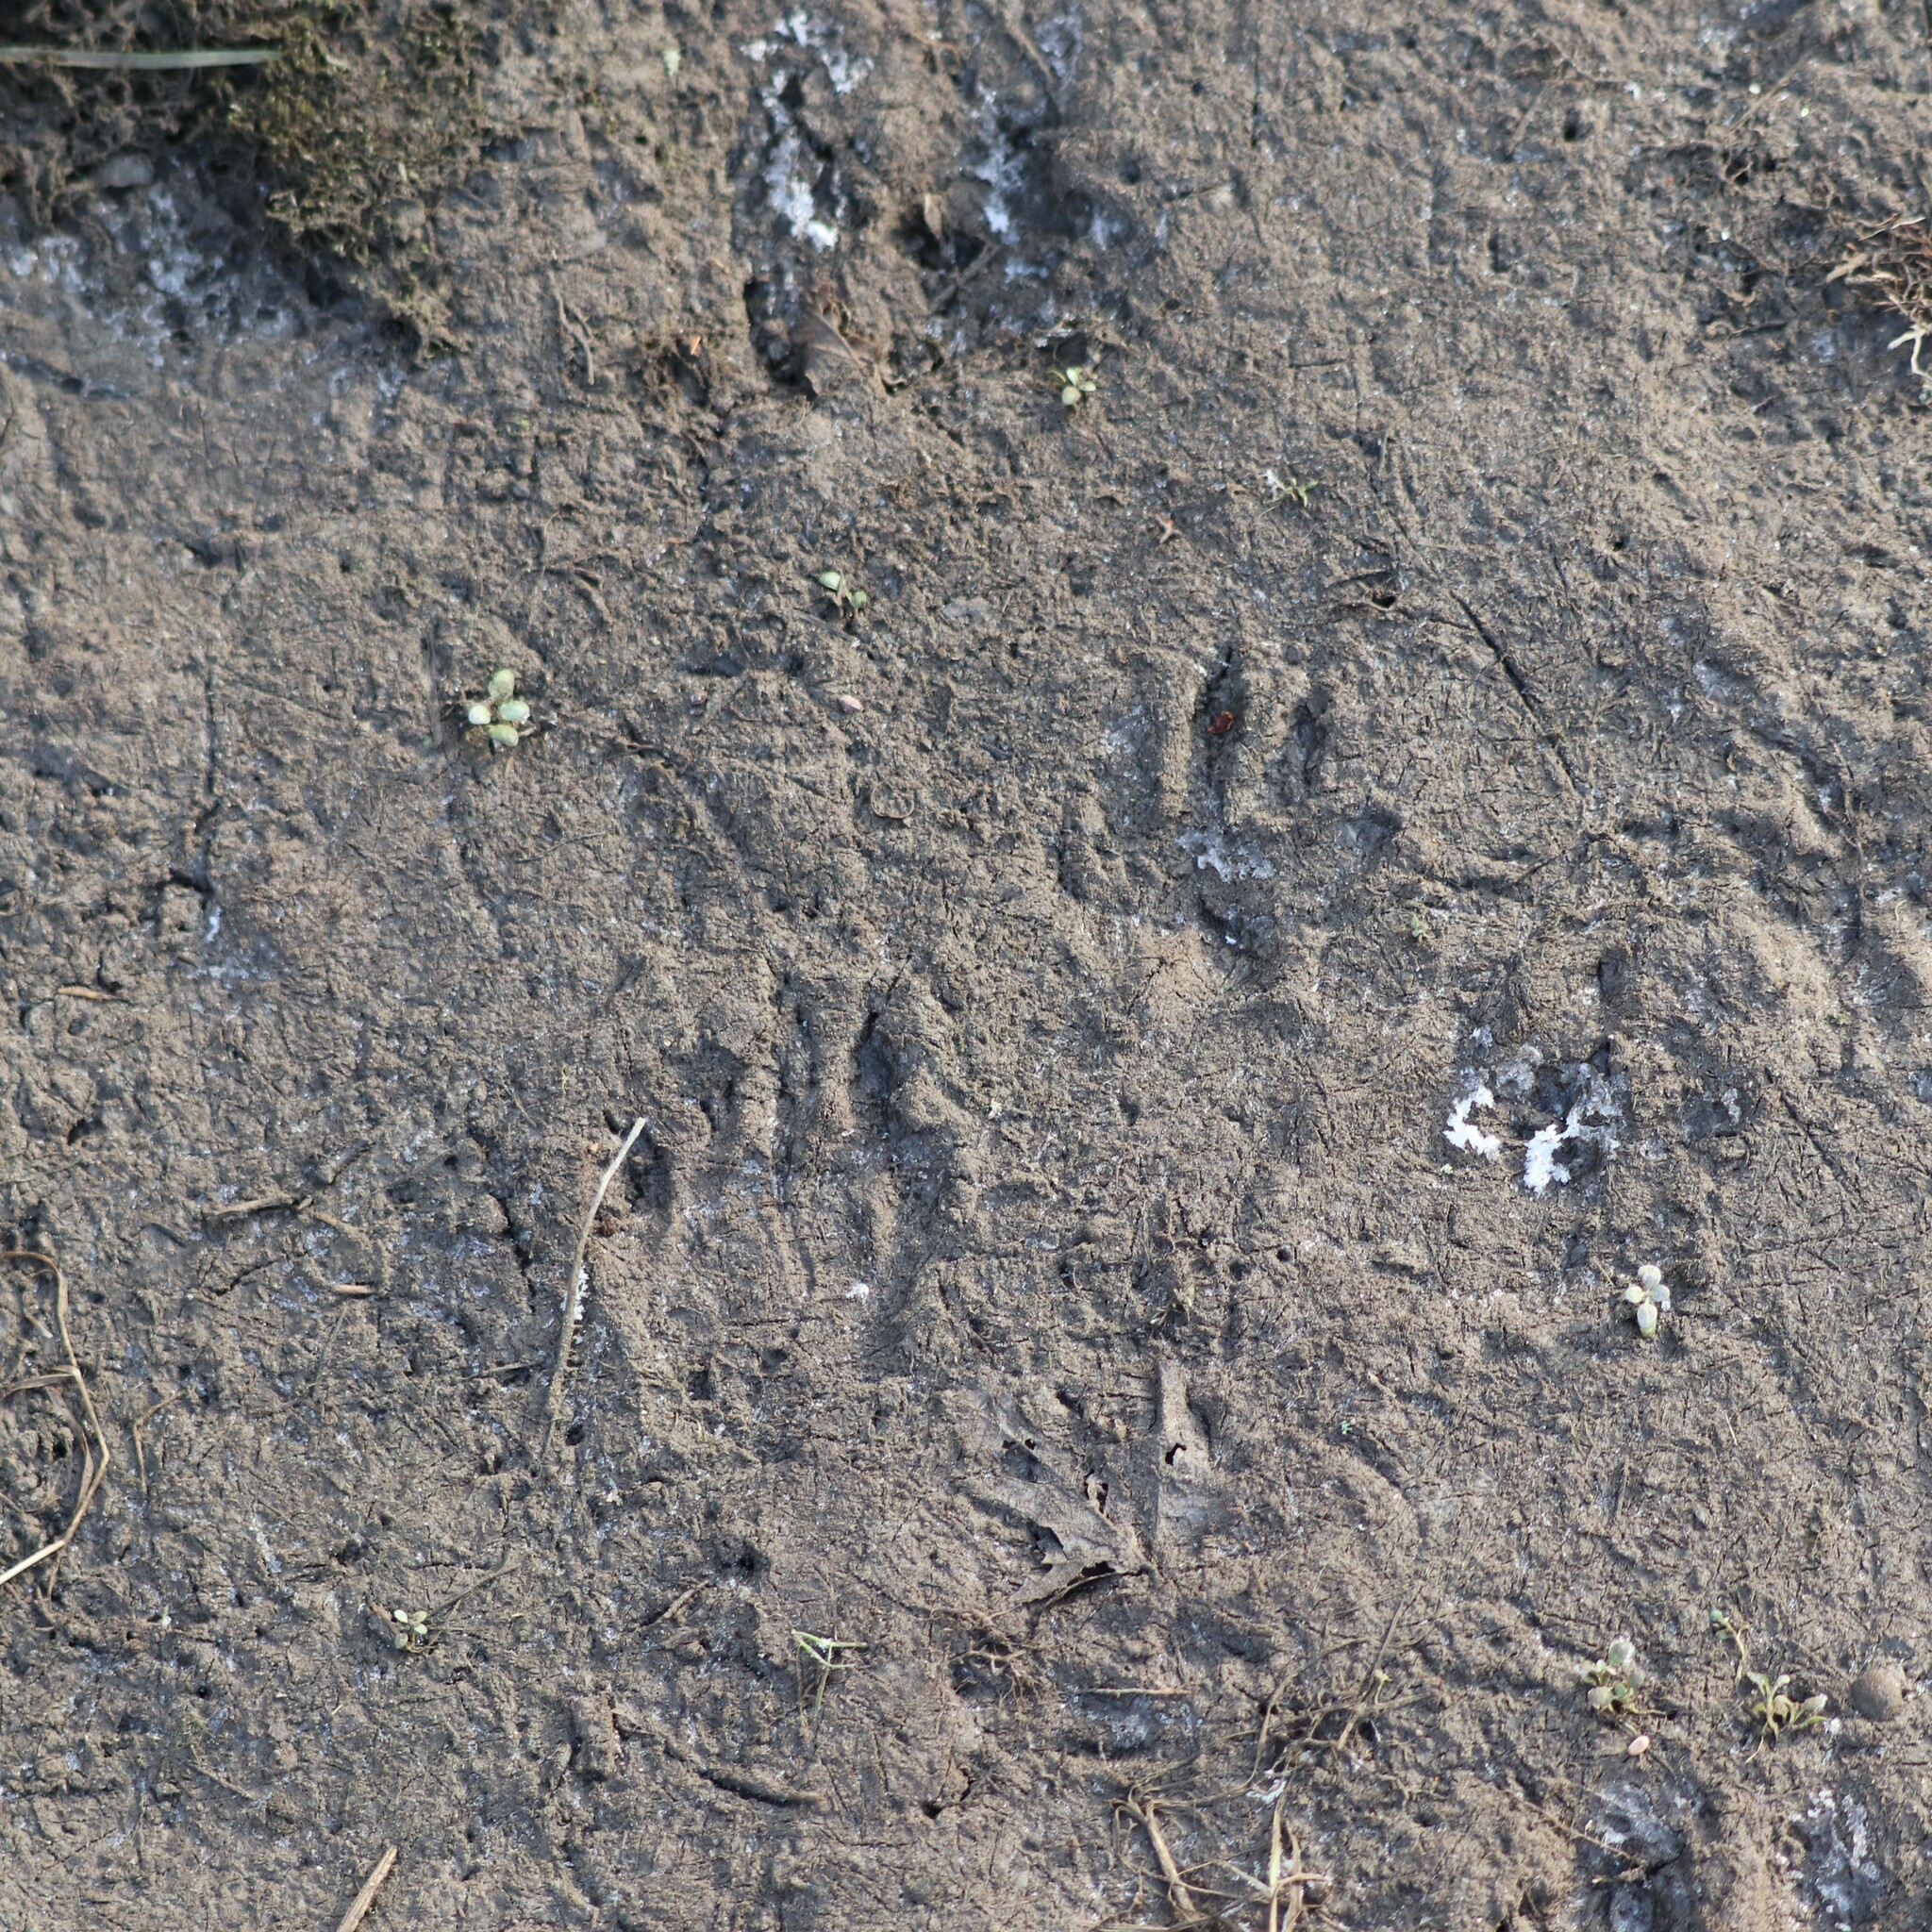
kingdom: Animalia
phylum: Chordata
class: Mammalia
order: Carnivora
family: Procyonidae
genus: Procyon
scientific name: Procyon lotor
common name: Raccoon
